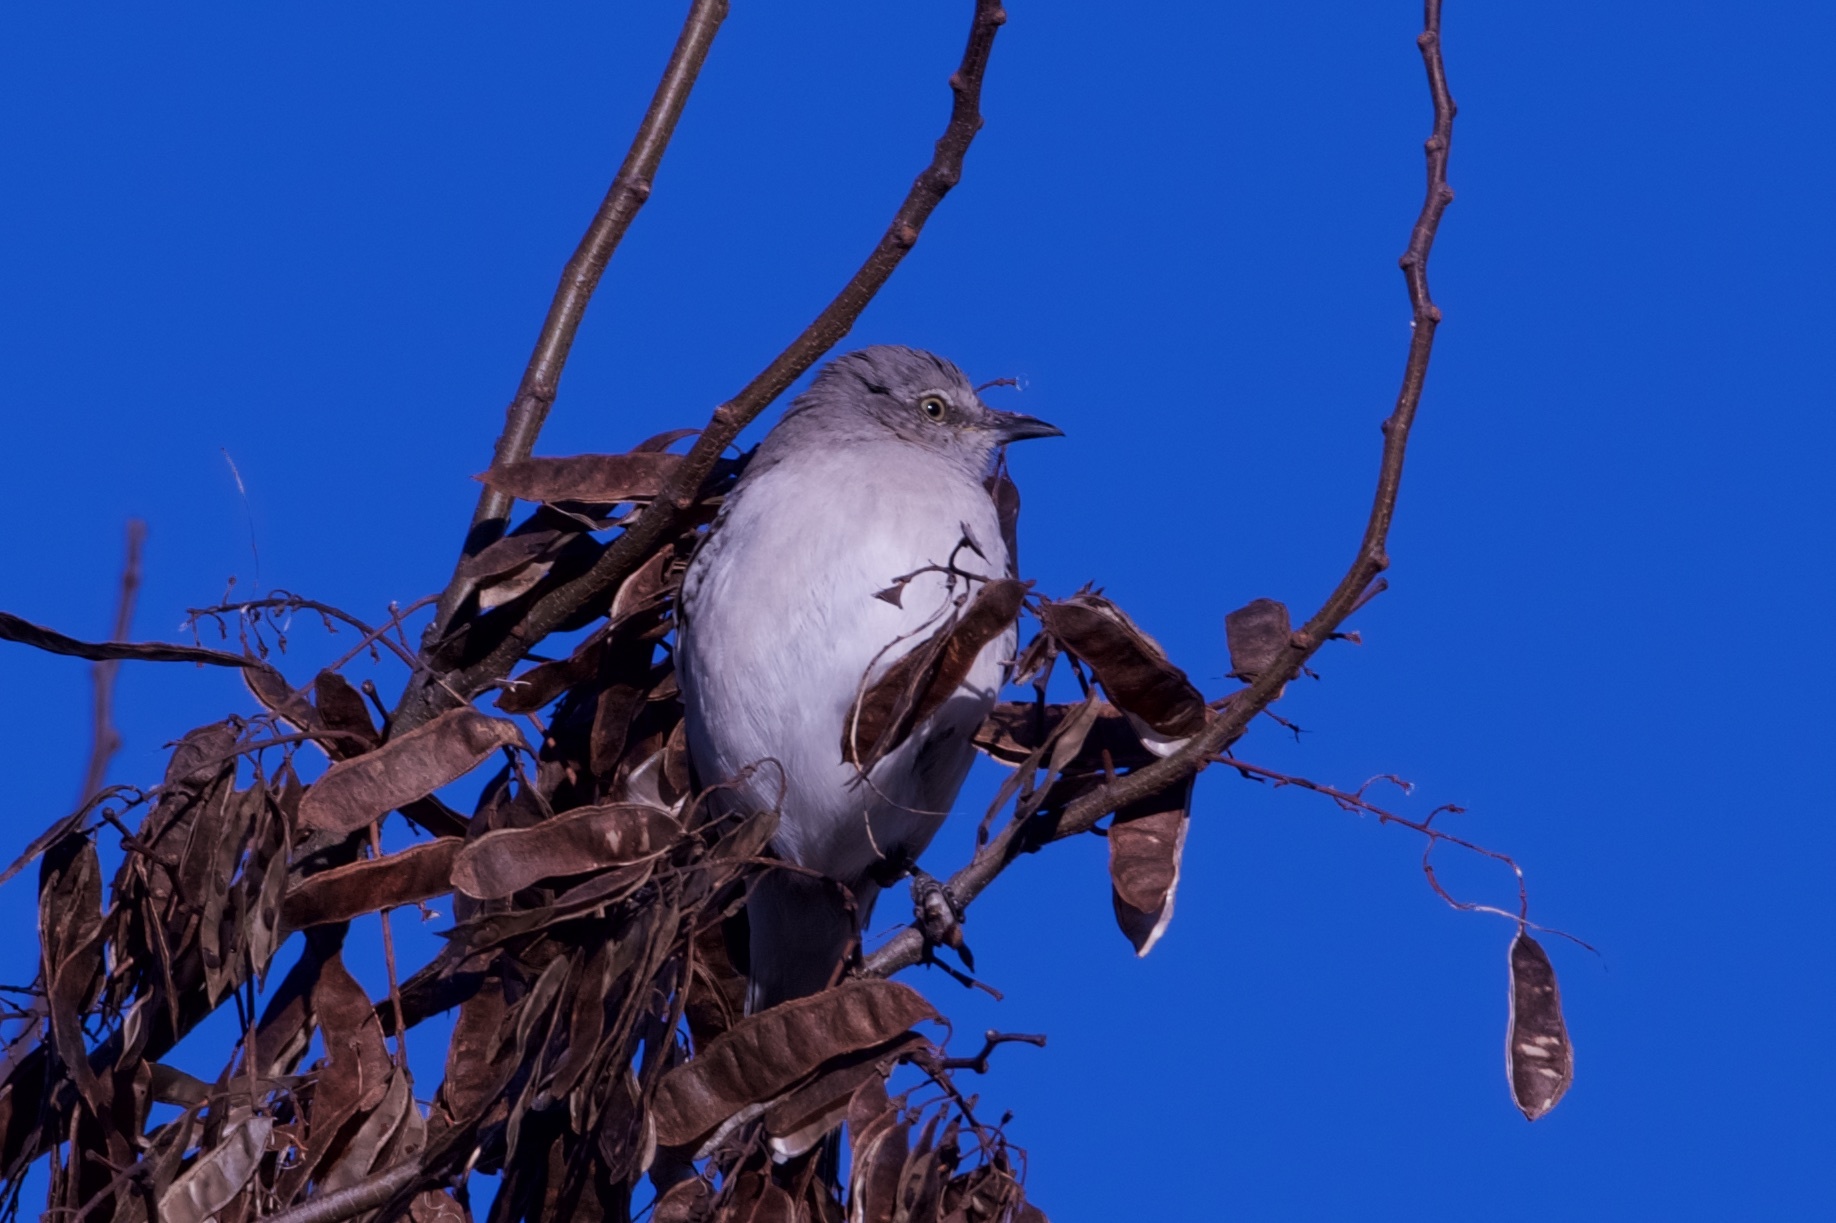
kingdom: Animalia
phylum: Chordata
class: Aves
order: Passeriformes
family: Mimidae
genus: Mimus
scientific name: Mimus polyglottos
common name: Northern mockingbird
